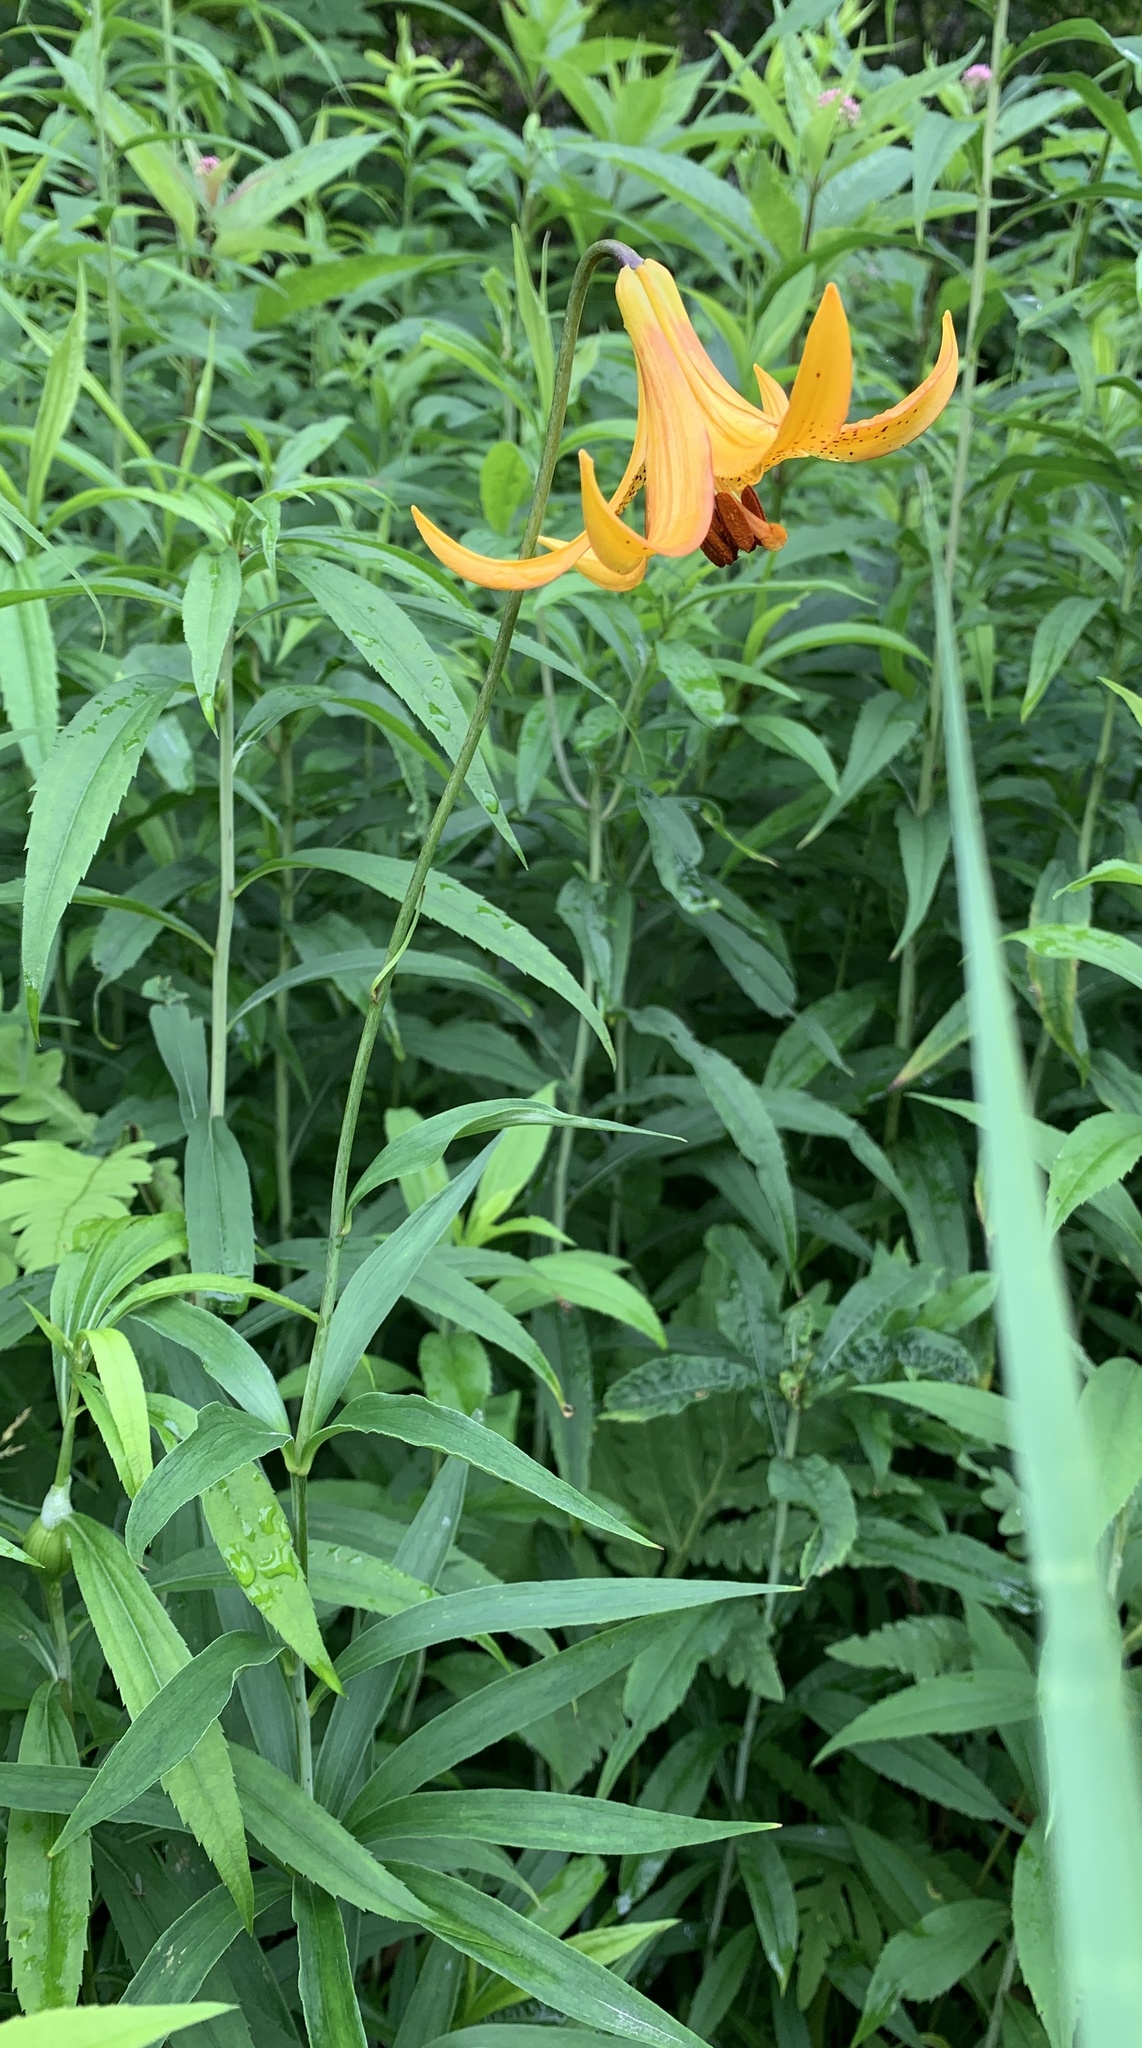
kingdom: Plantae
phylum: Tracheophyta
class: Liliopsida
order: Liliales
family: Liliaceae
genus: Lilium
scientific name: Lilium canadense
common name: Canada lily
